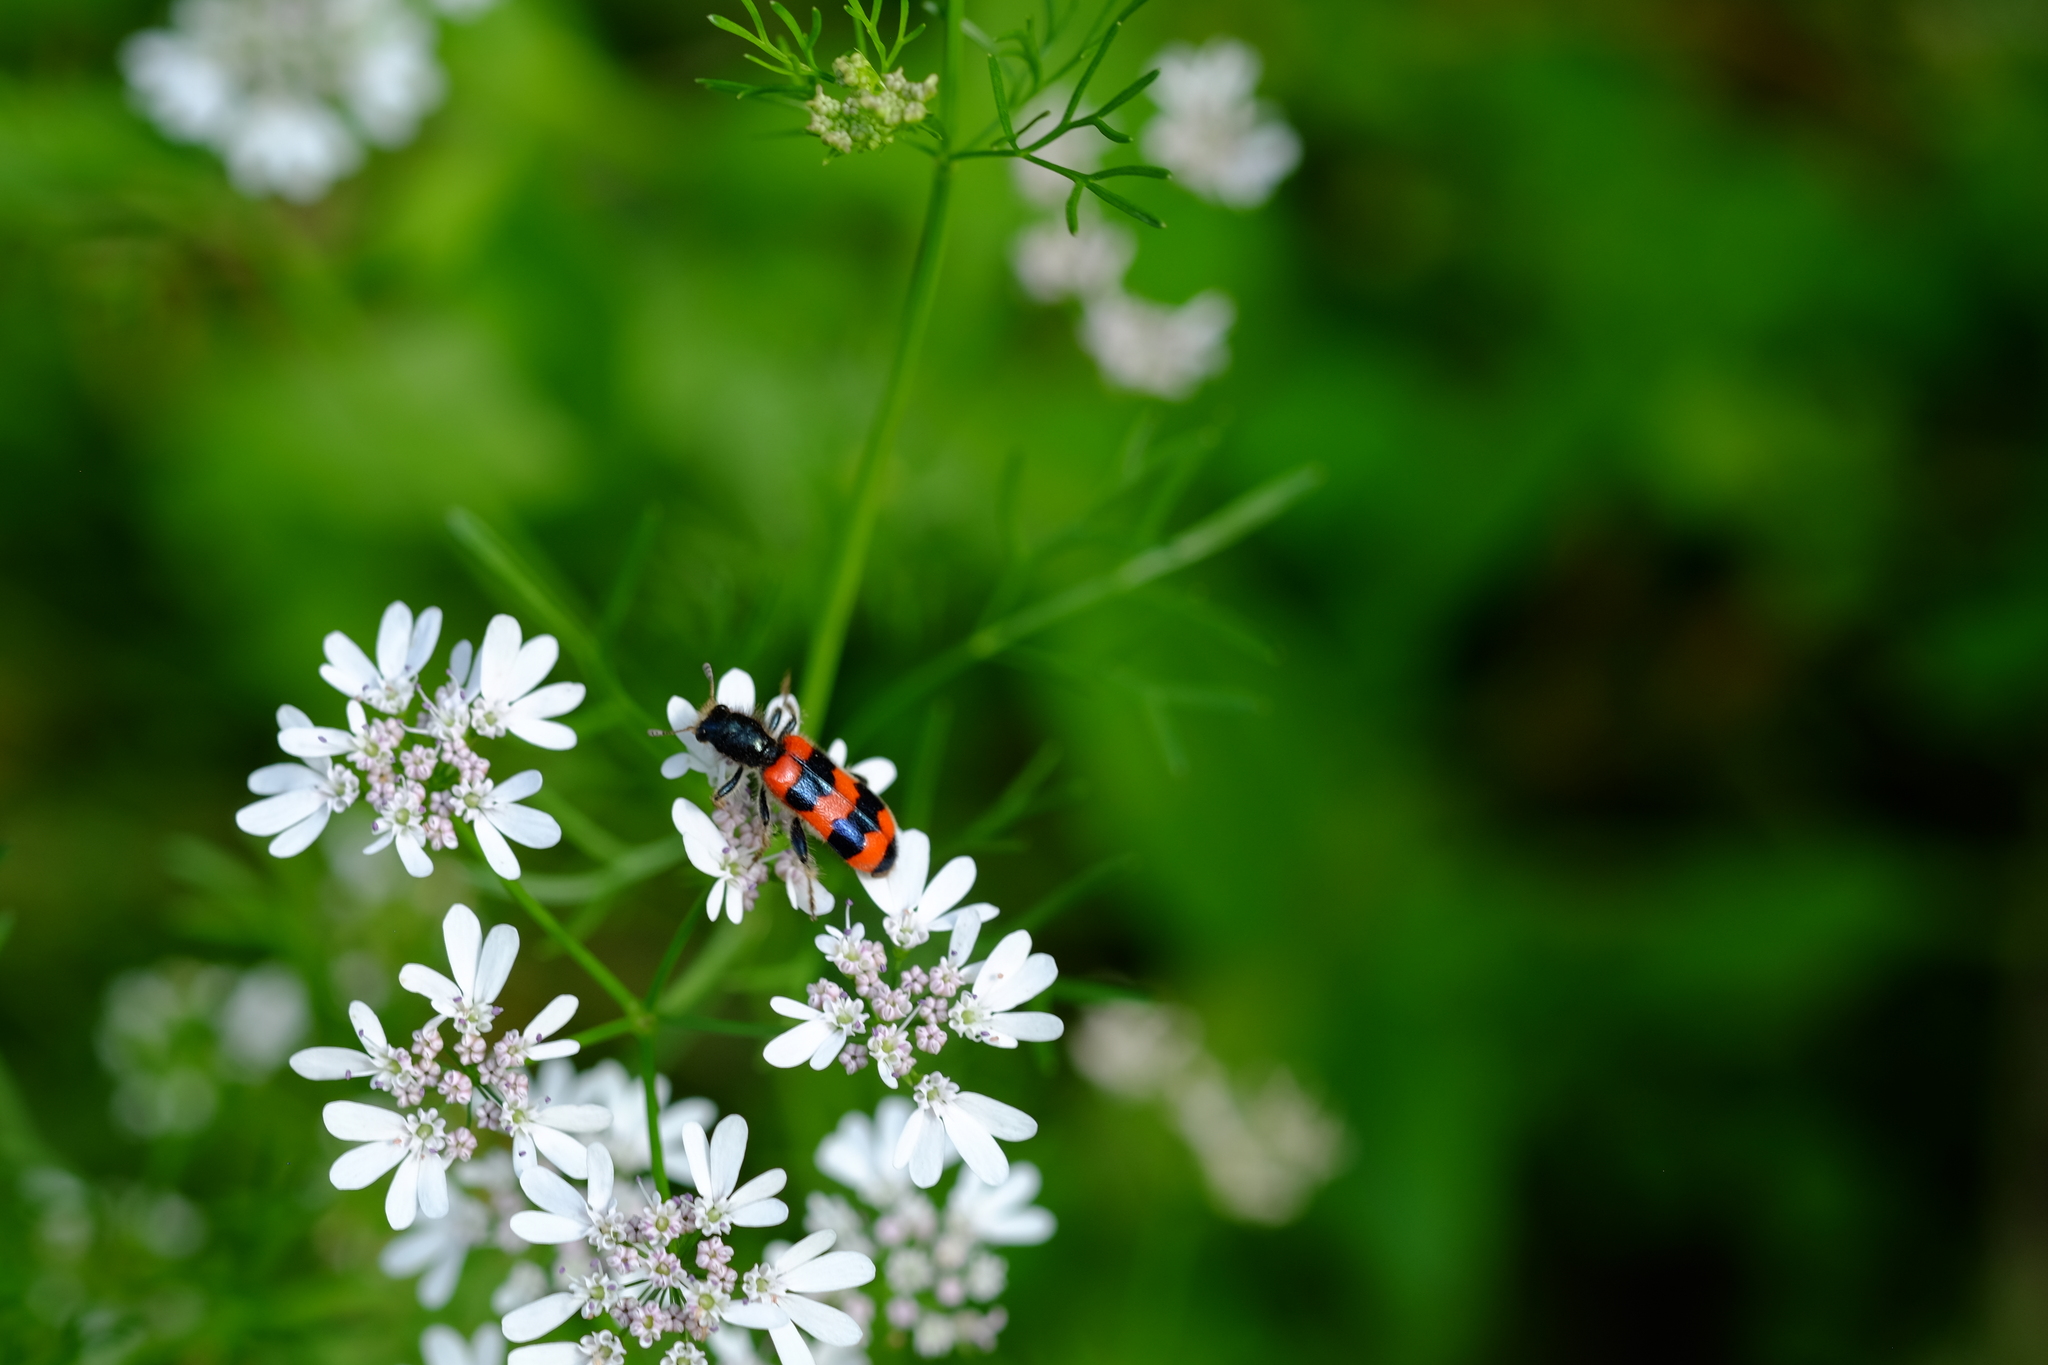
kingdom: Animalia
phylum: Arthropoda
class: Insecta
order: Coleoptera
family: Cleridae
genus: Trichodes
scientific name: Trichodes apiarius
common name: Bee-eating beetle
